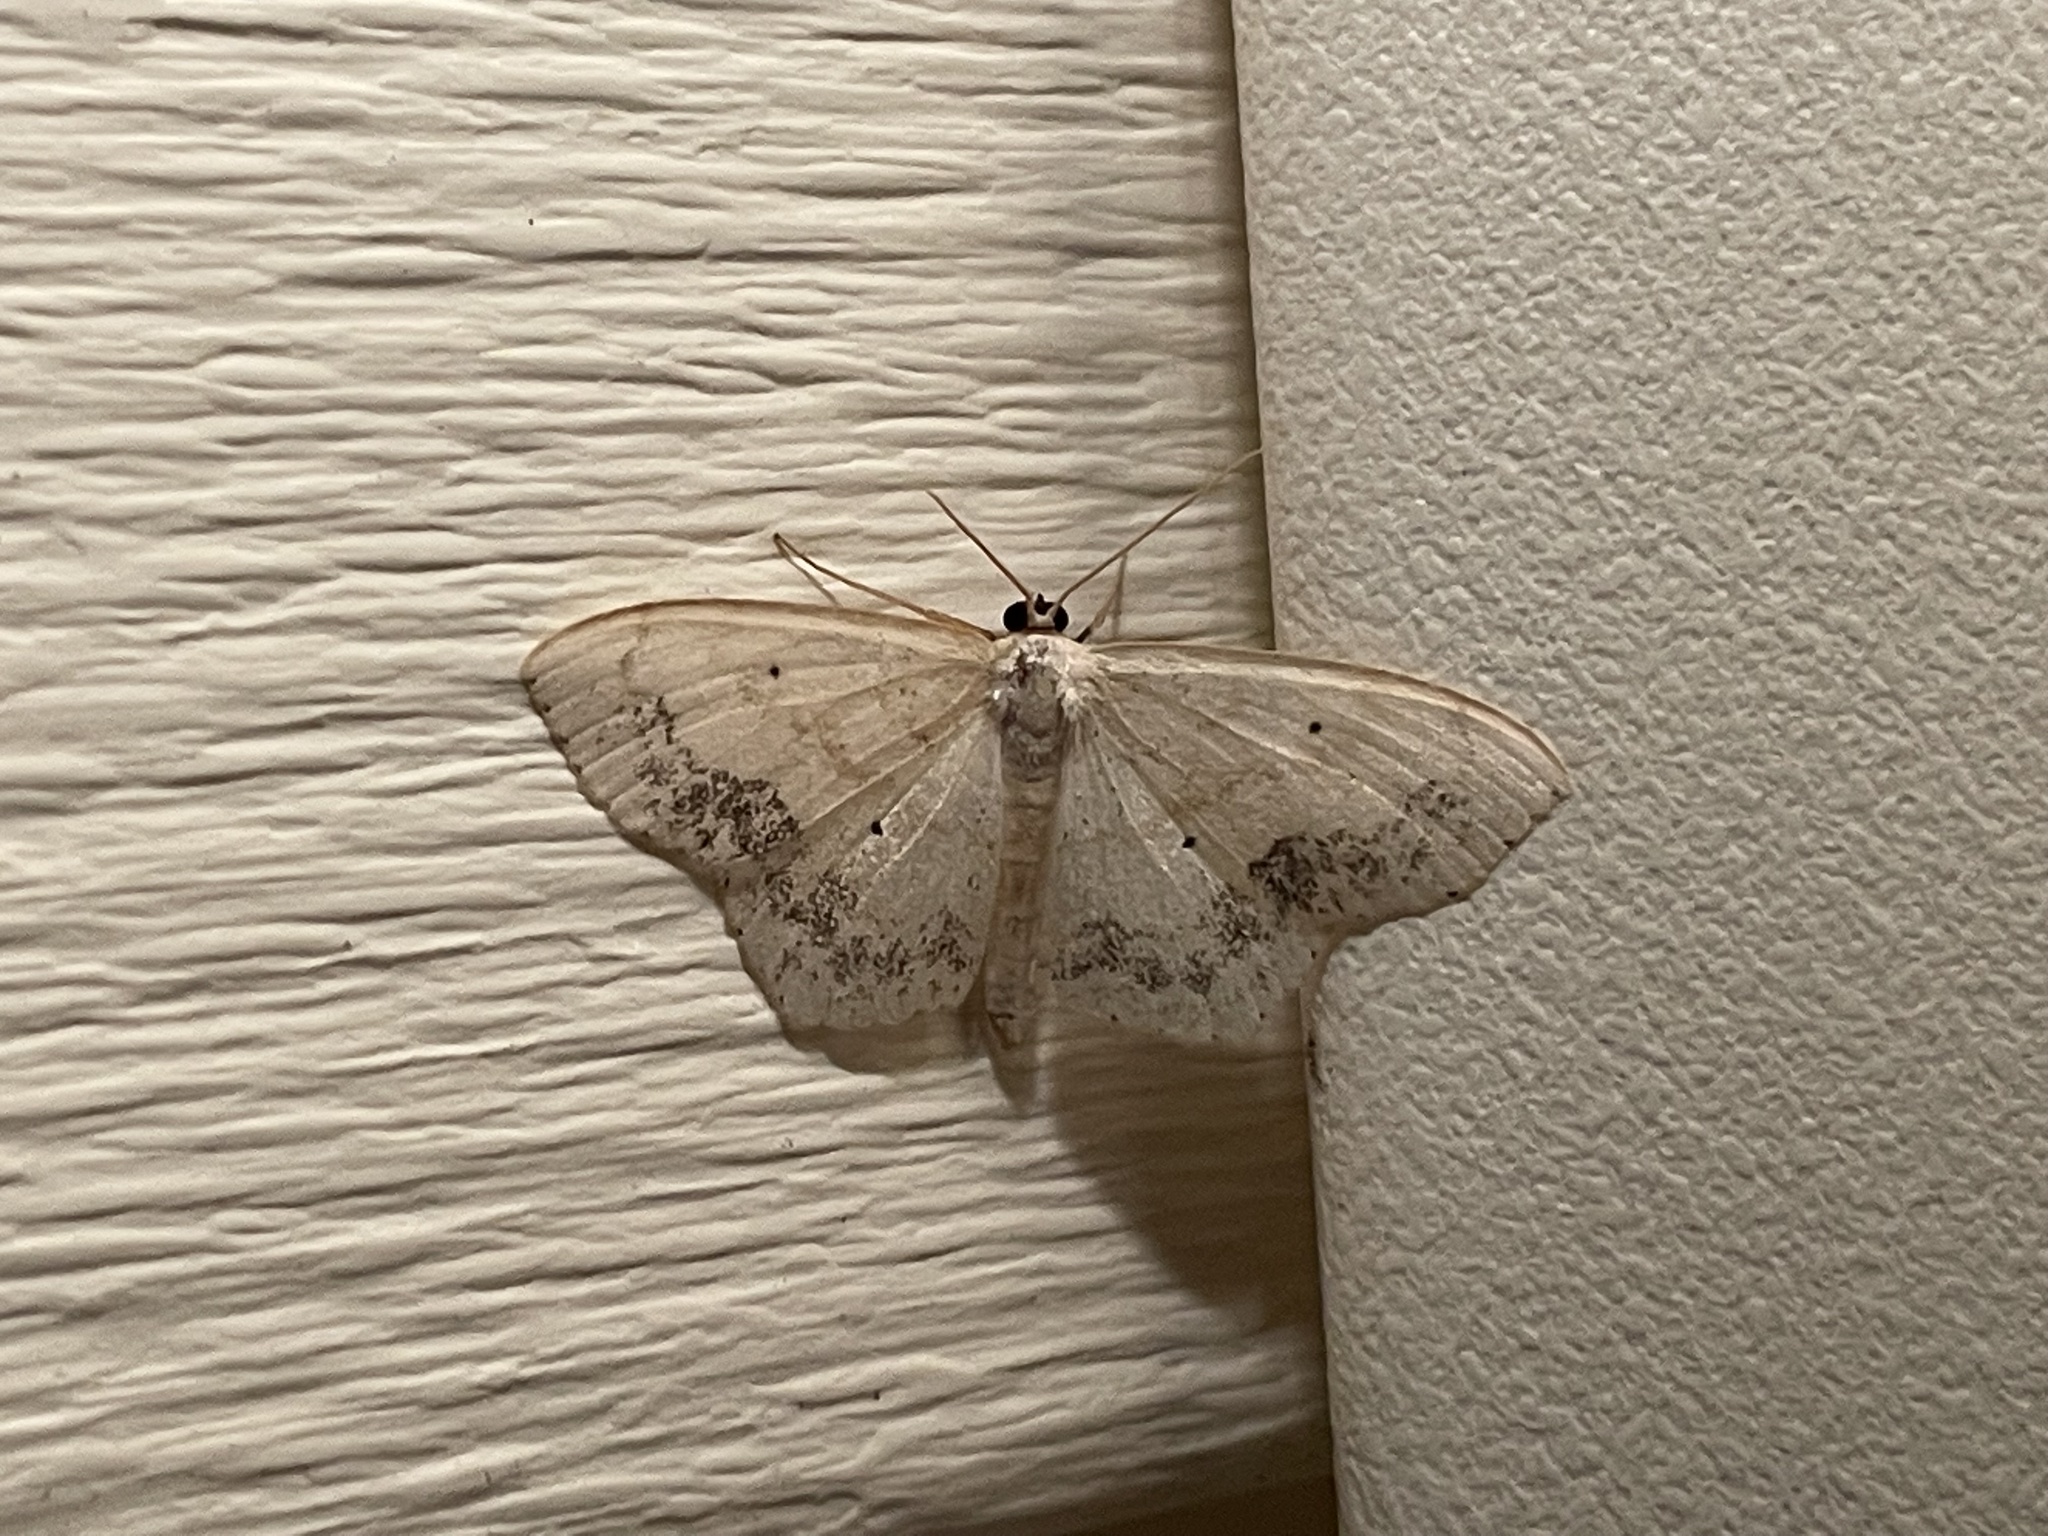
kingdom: Animalia
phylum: Arthropoda
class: Insecta
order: Lepidoptera
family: Geometridae
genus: Scopula
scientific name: Scopula limboundata
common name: Large lace border
